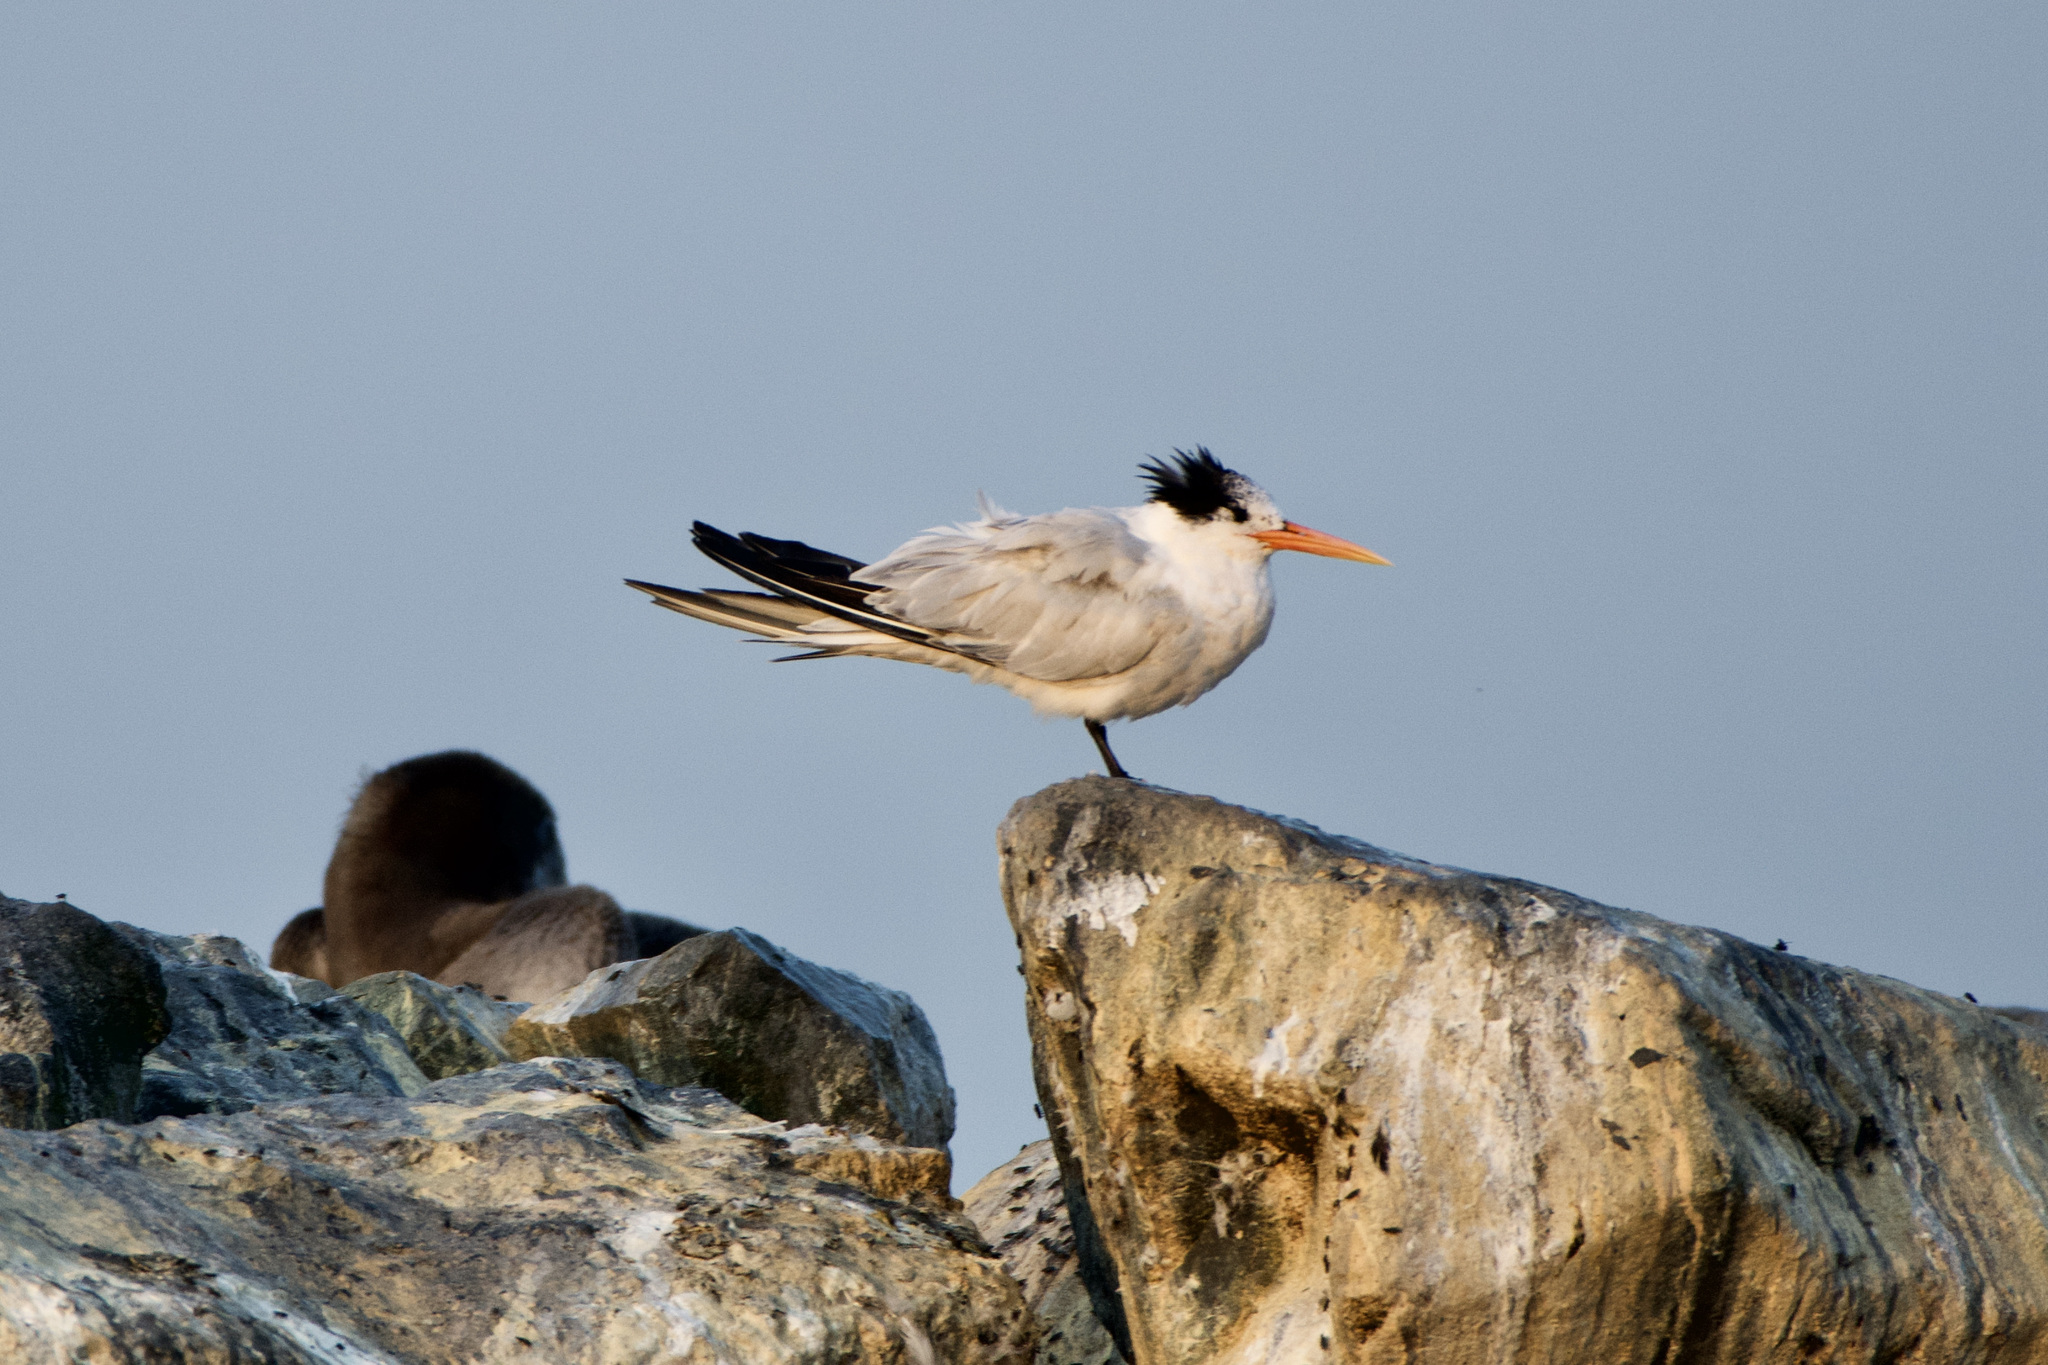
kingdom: Animalia
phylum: Chordata
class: Aves
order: Charadriiformes
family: Laridae
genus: Thalasseus
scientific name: Thalasseus elegans
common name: Elegant tern
